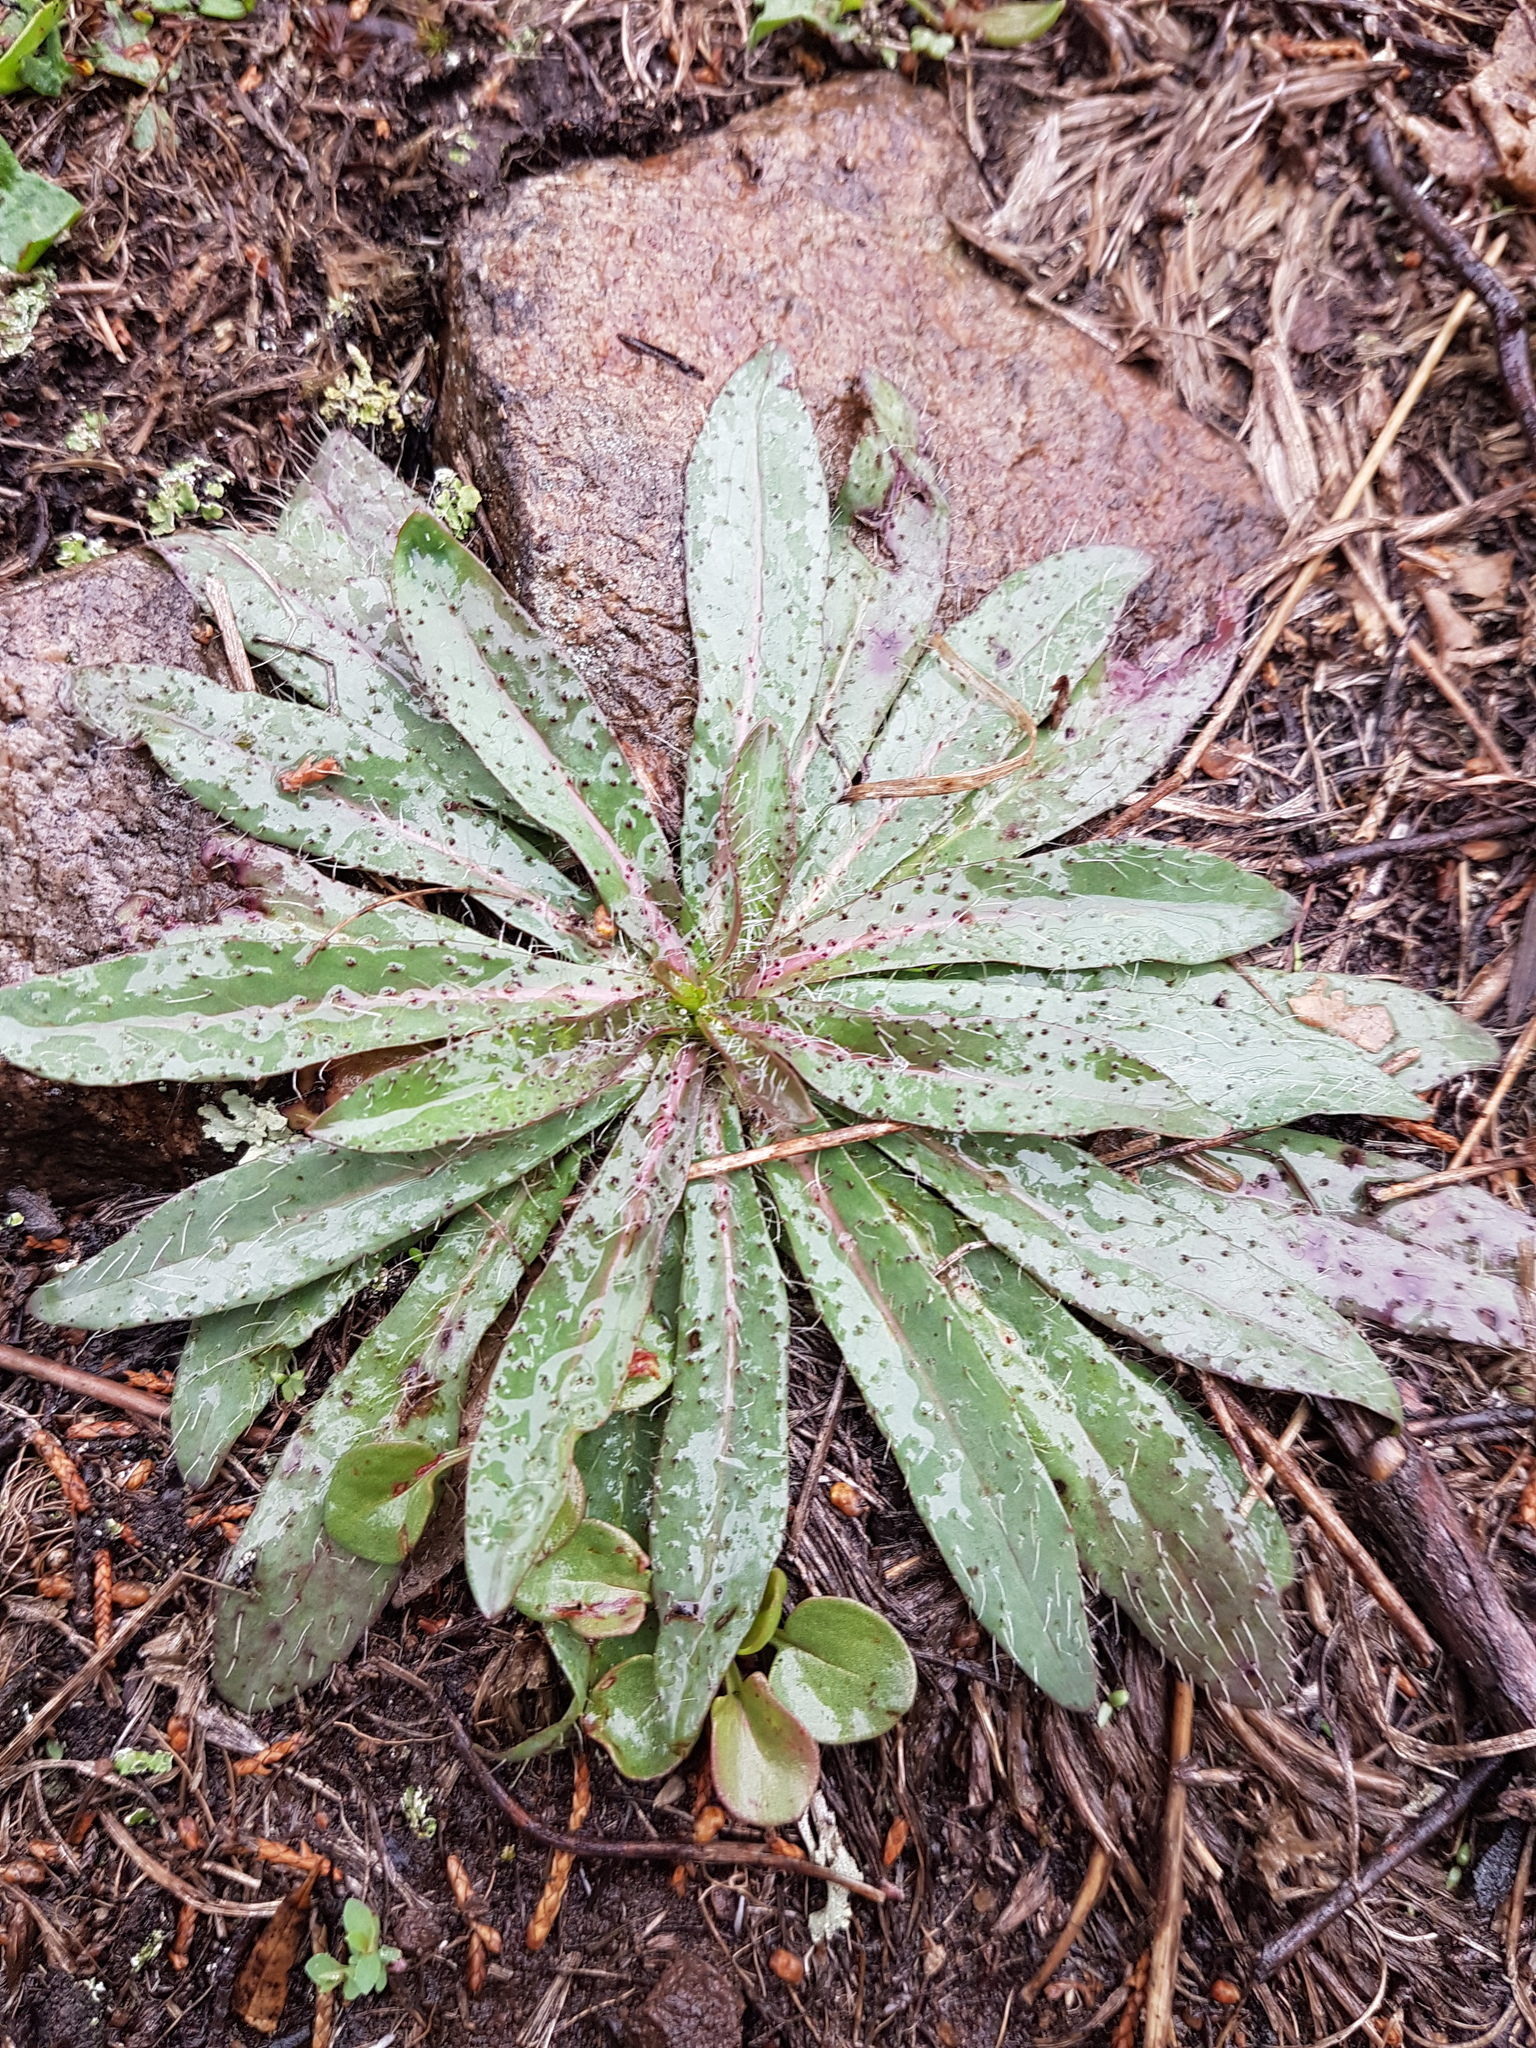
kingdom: Plantae
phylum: Tracheophyta
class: Magnoliopsida
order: Boraginales
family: Boraginaceae
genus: Echium
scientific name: Echium vulgare
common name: Common viper's bugloss
